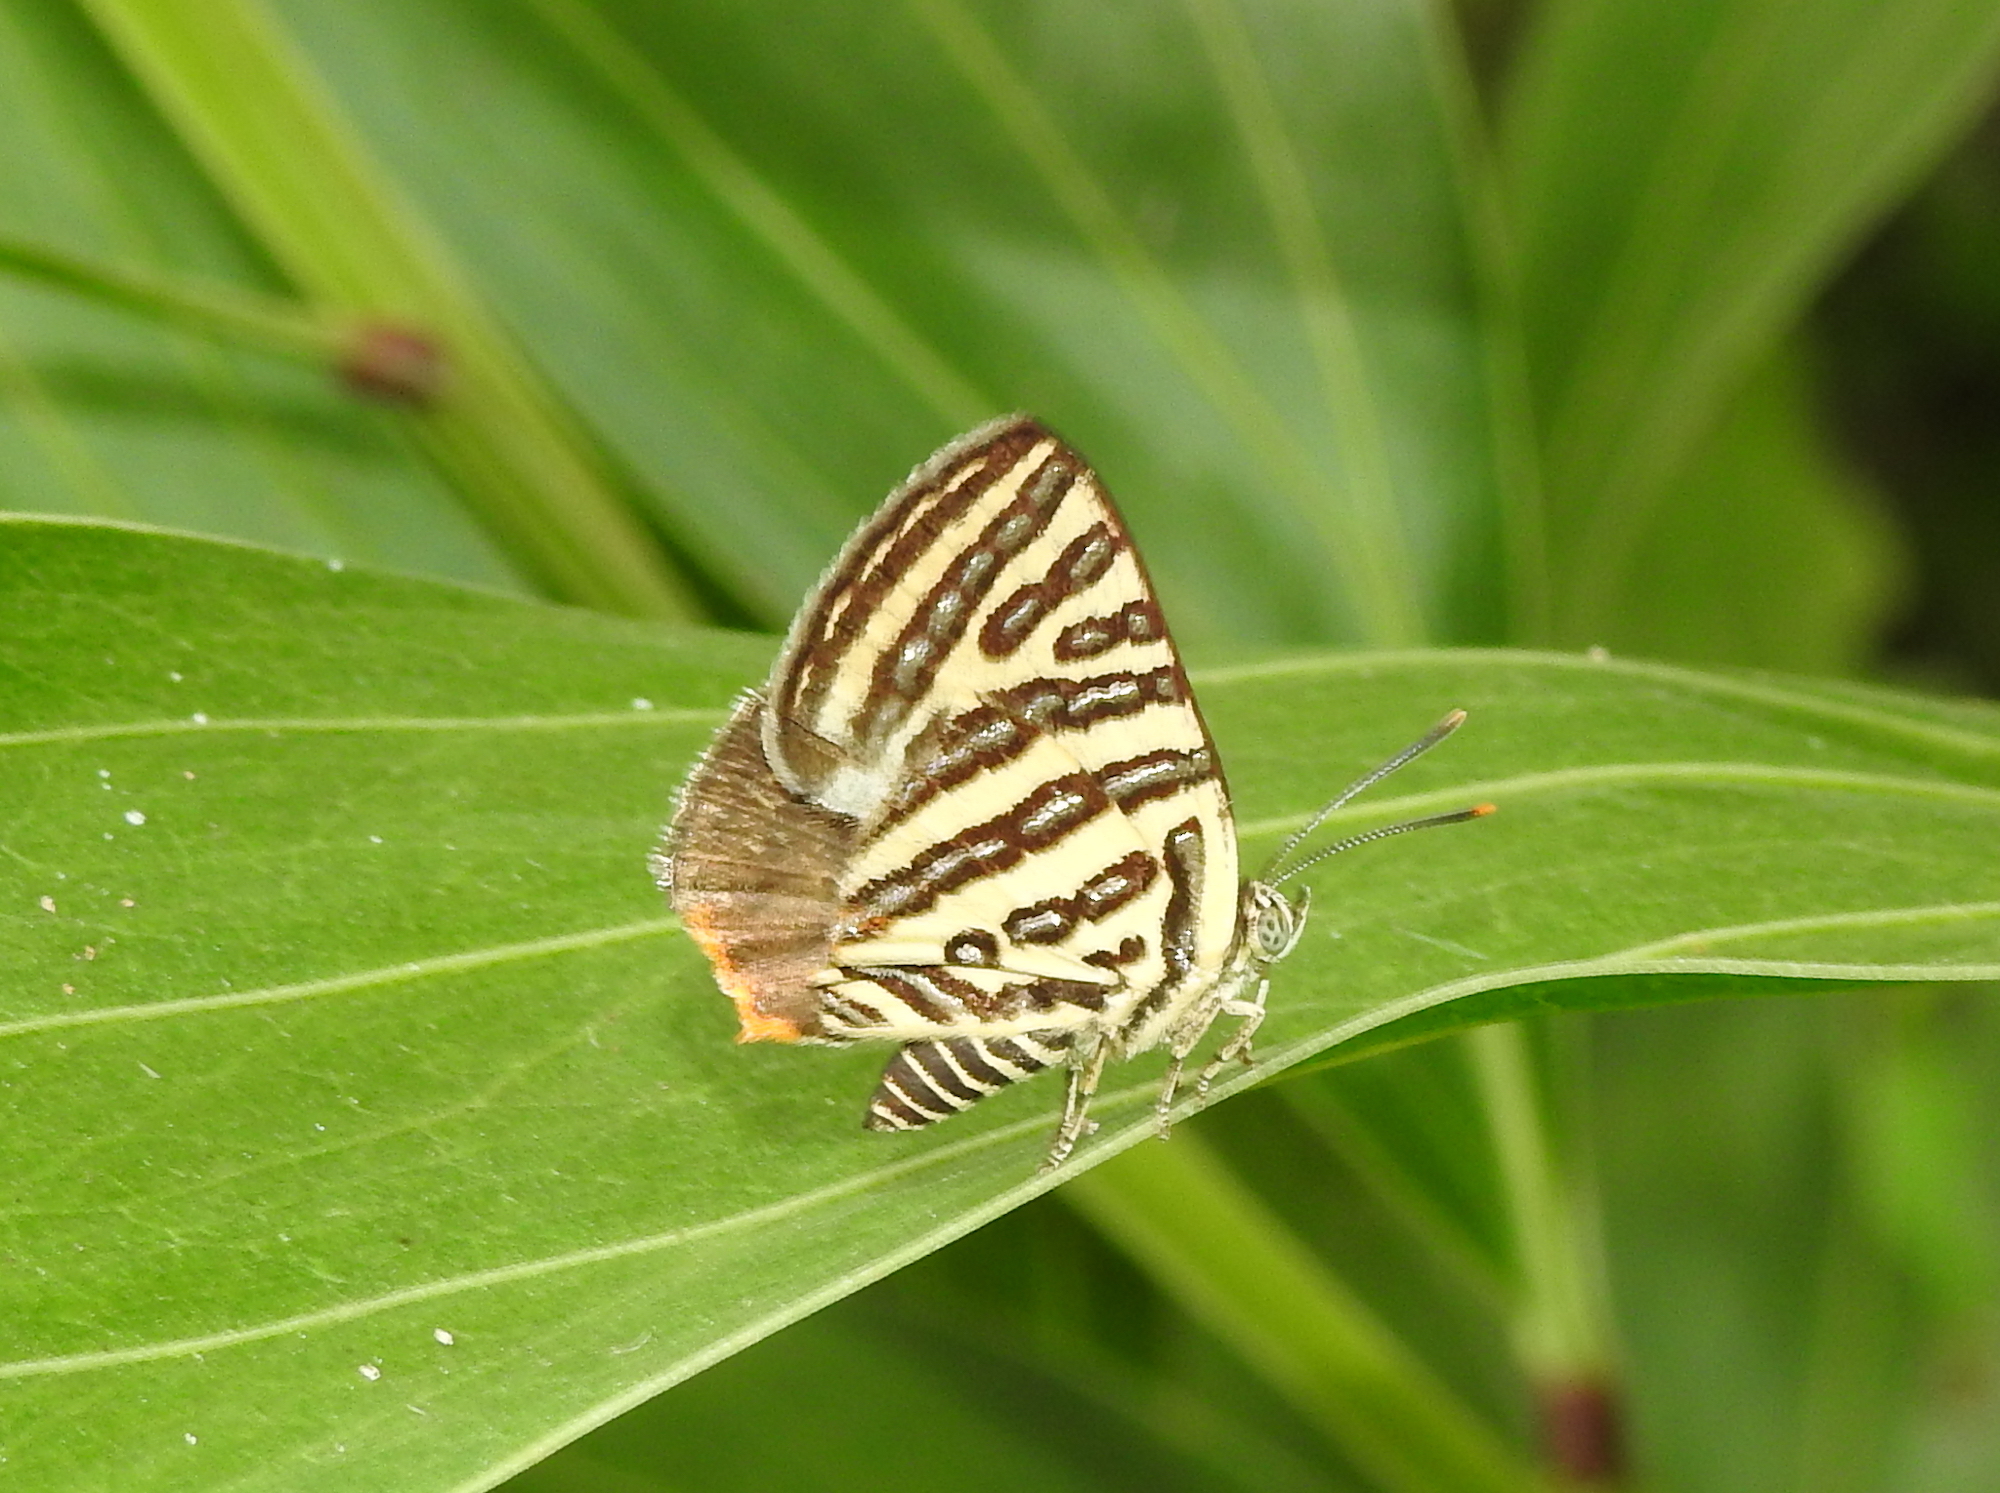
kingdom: Animalia
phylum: Arthropoda
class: Insecta
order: Lepidoptera
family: Lycaenidae
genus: Cigaritis
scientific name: Cigaritis syama
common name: Club silverline
